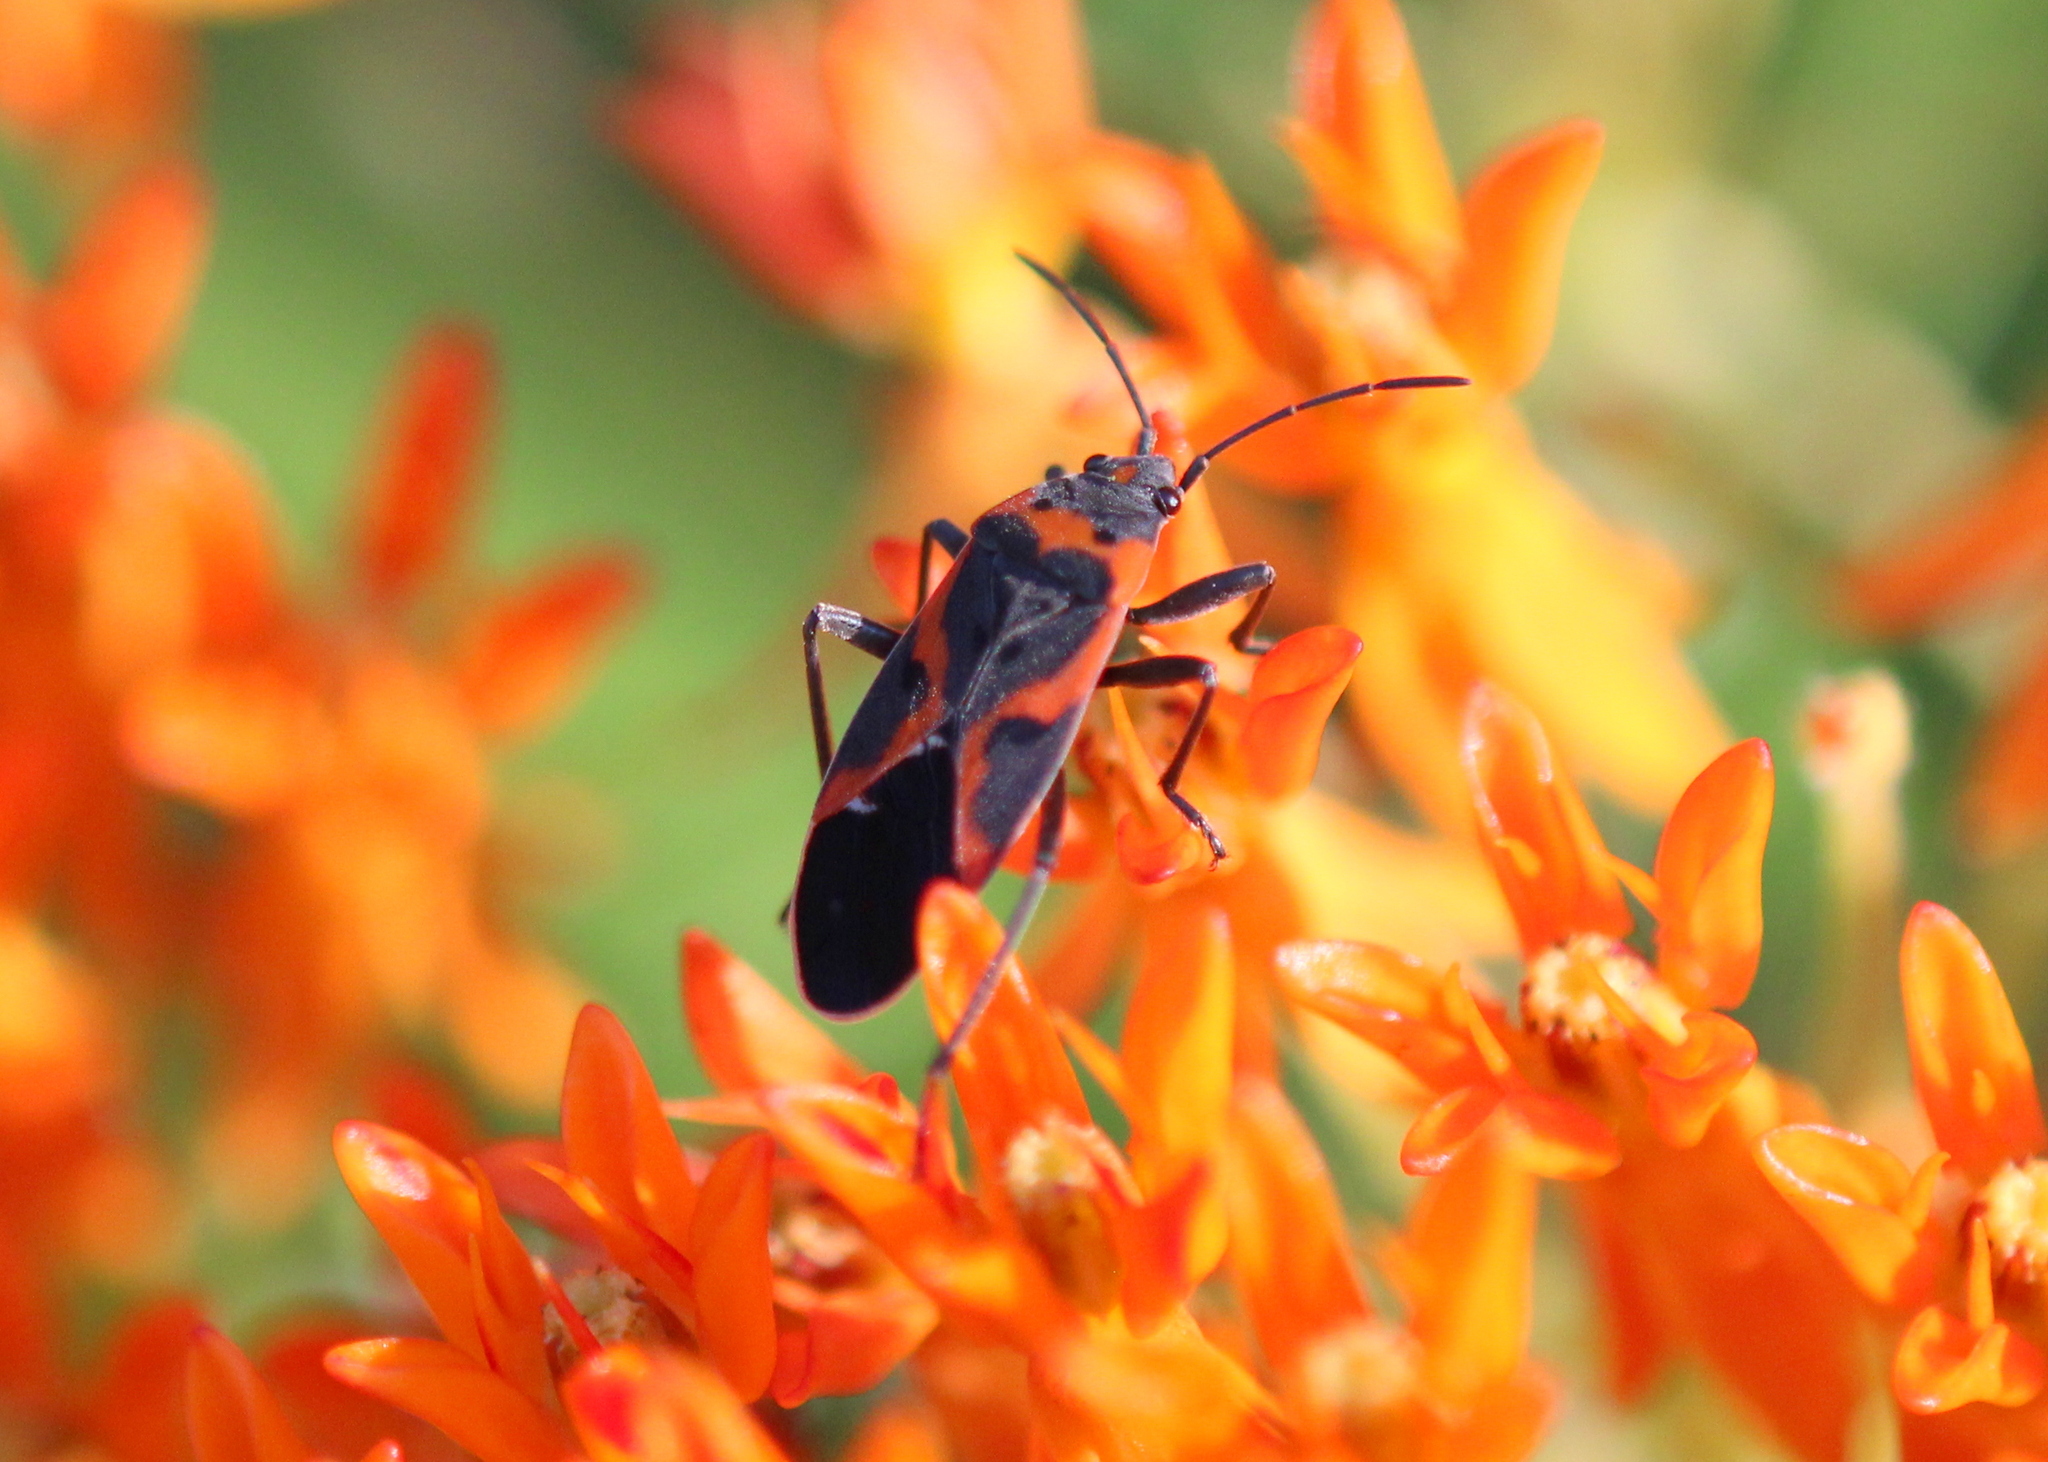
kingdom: Animalia
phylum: Arthropoda
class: Insecta
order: Hemiptera
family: Lygaeidae
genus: Lygaeus
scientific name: Lygaeus kalmii
